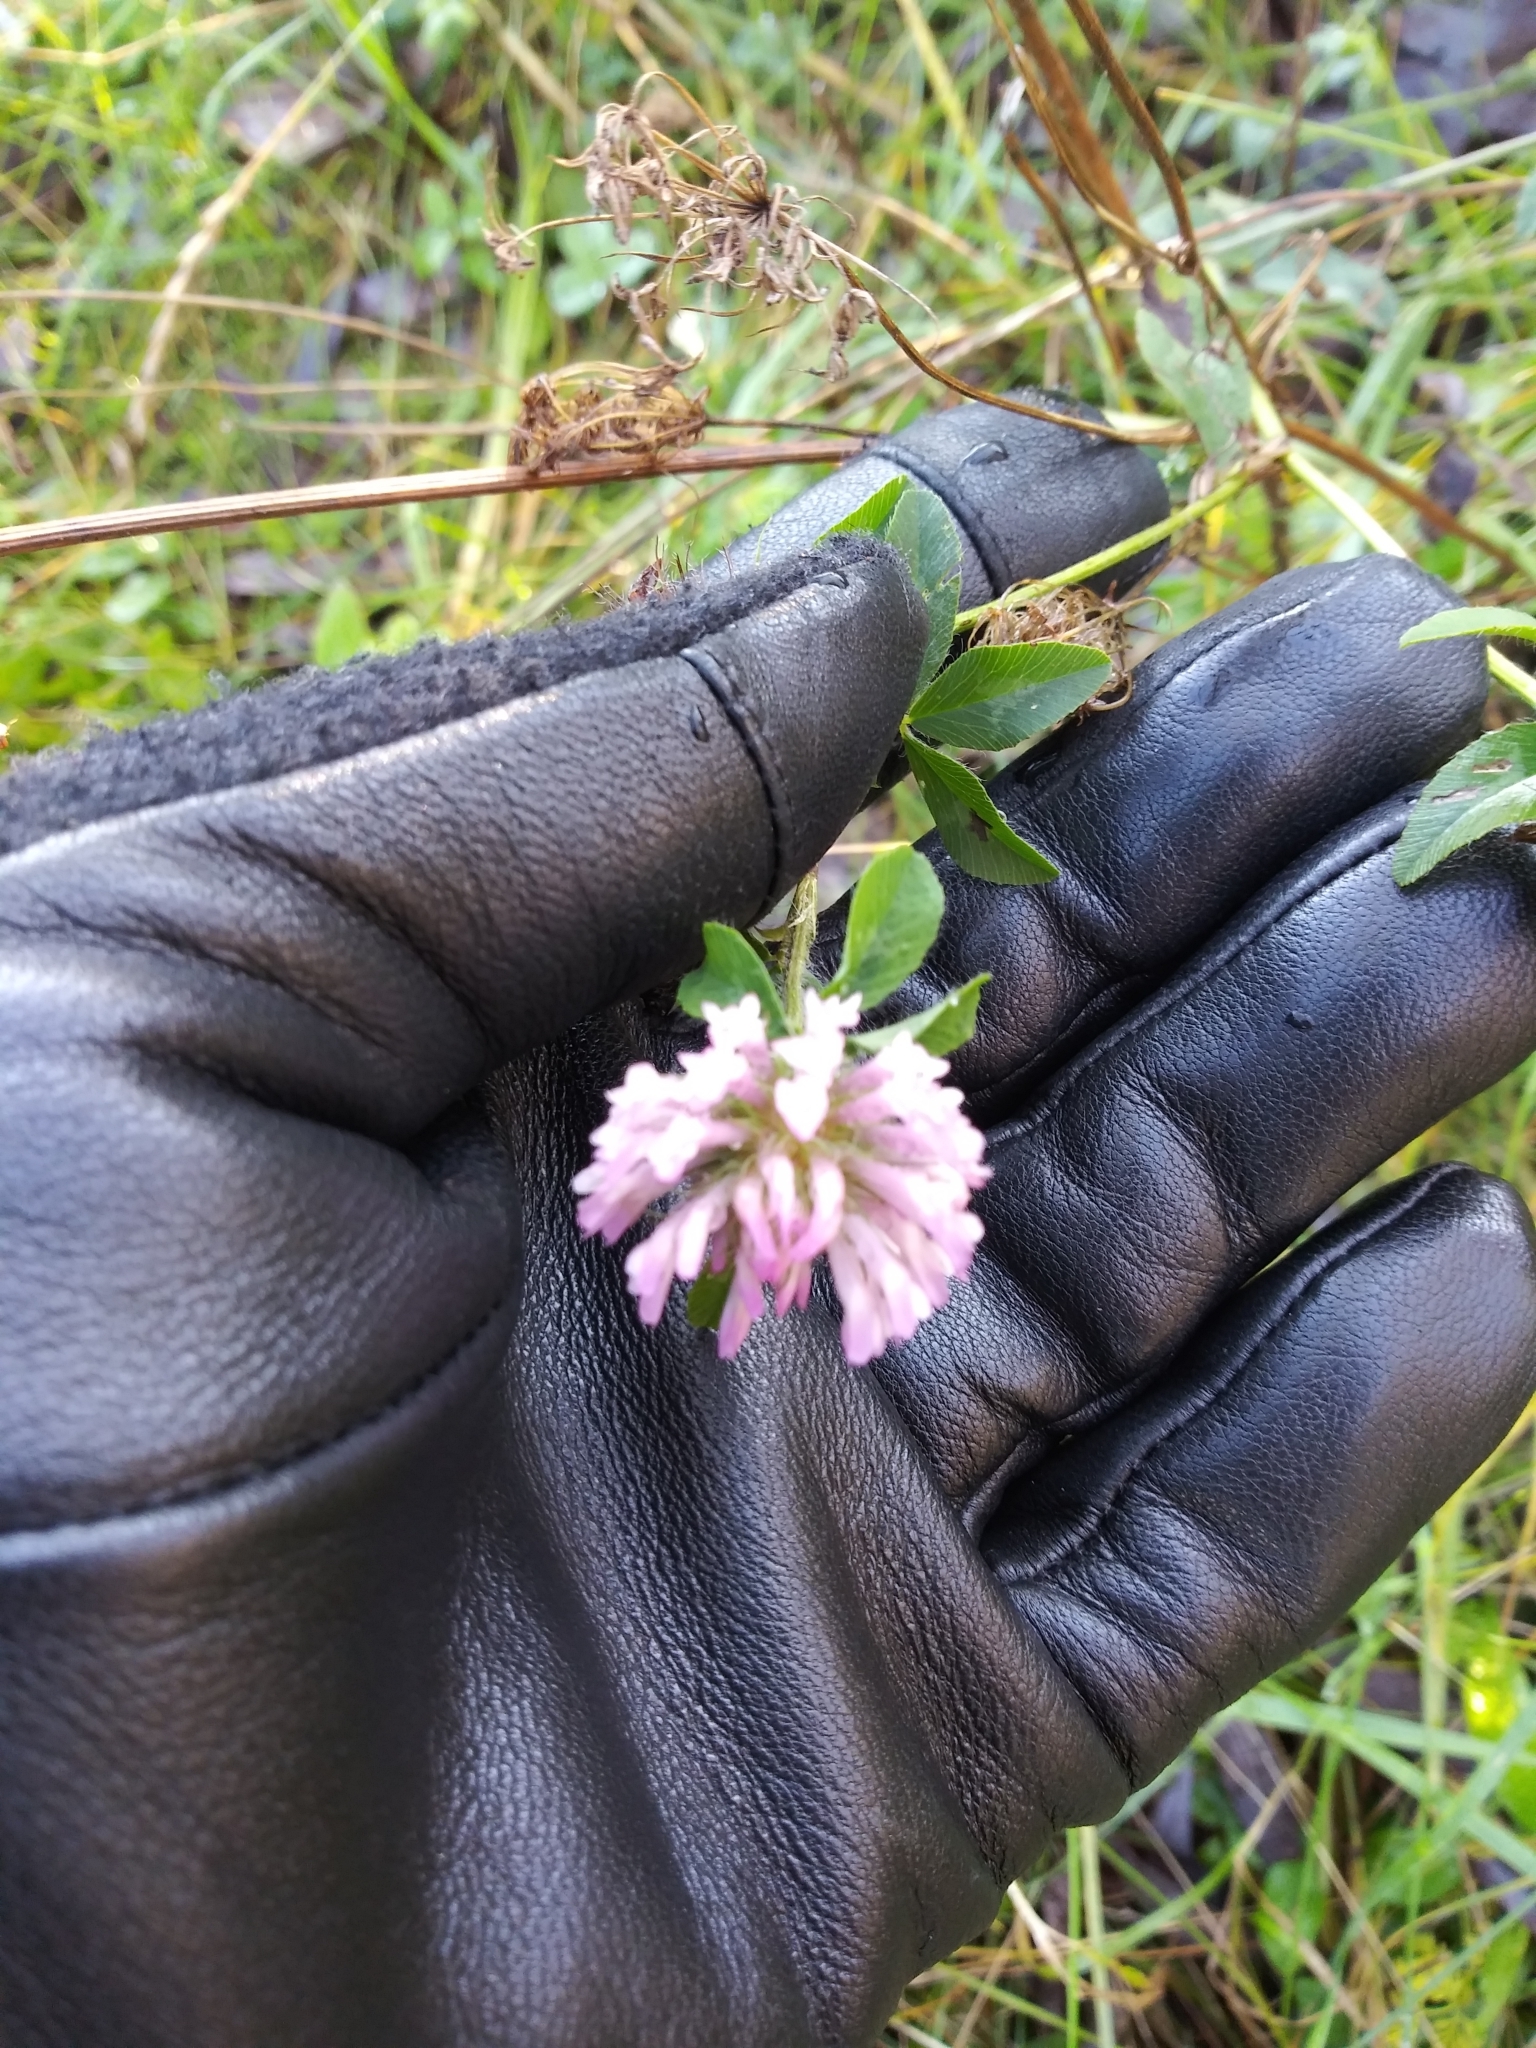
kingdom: Plantae
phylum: Tracheophyta
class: Magnoliopsida
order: Fabales
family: Fabaceae
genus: Trifolium
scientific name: Trifolium pratense
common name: Red clover
